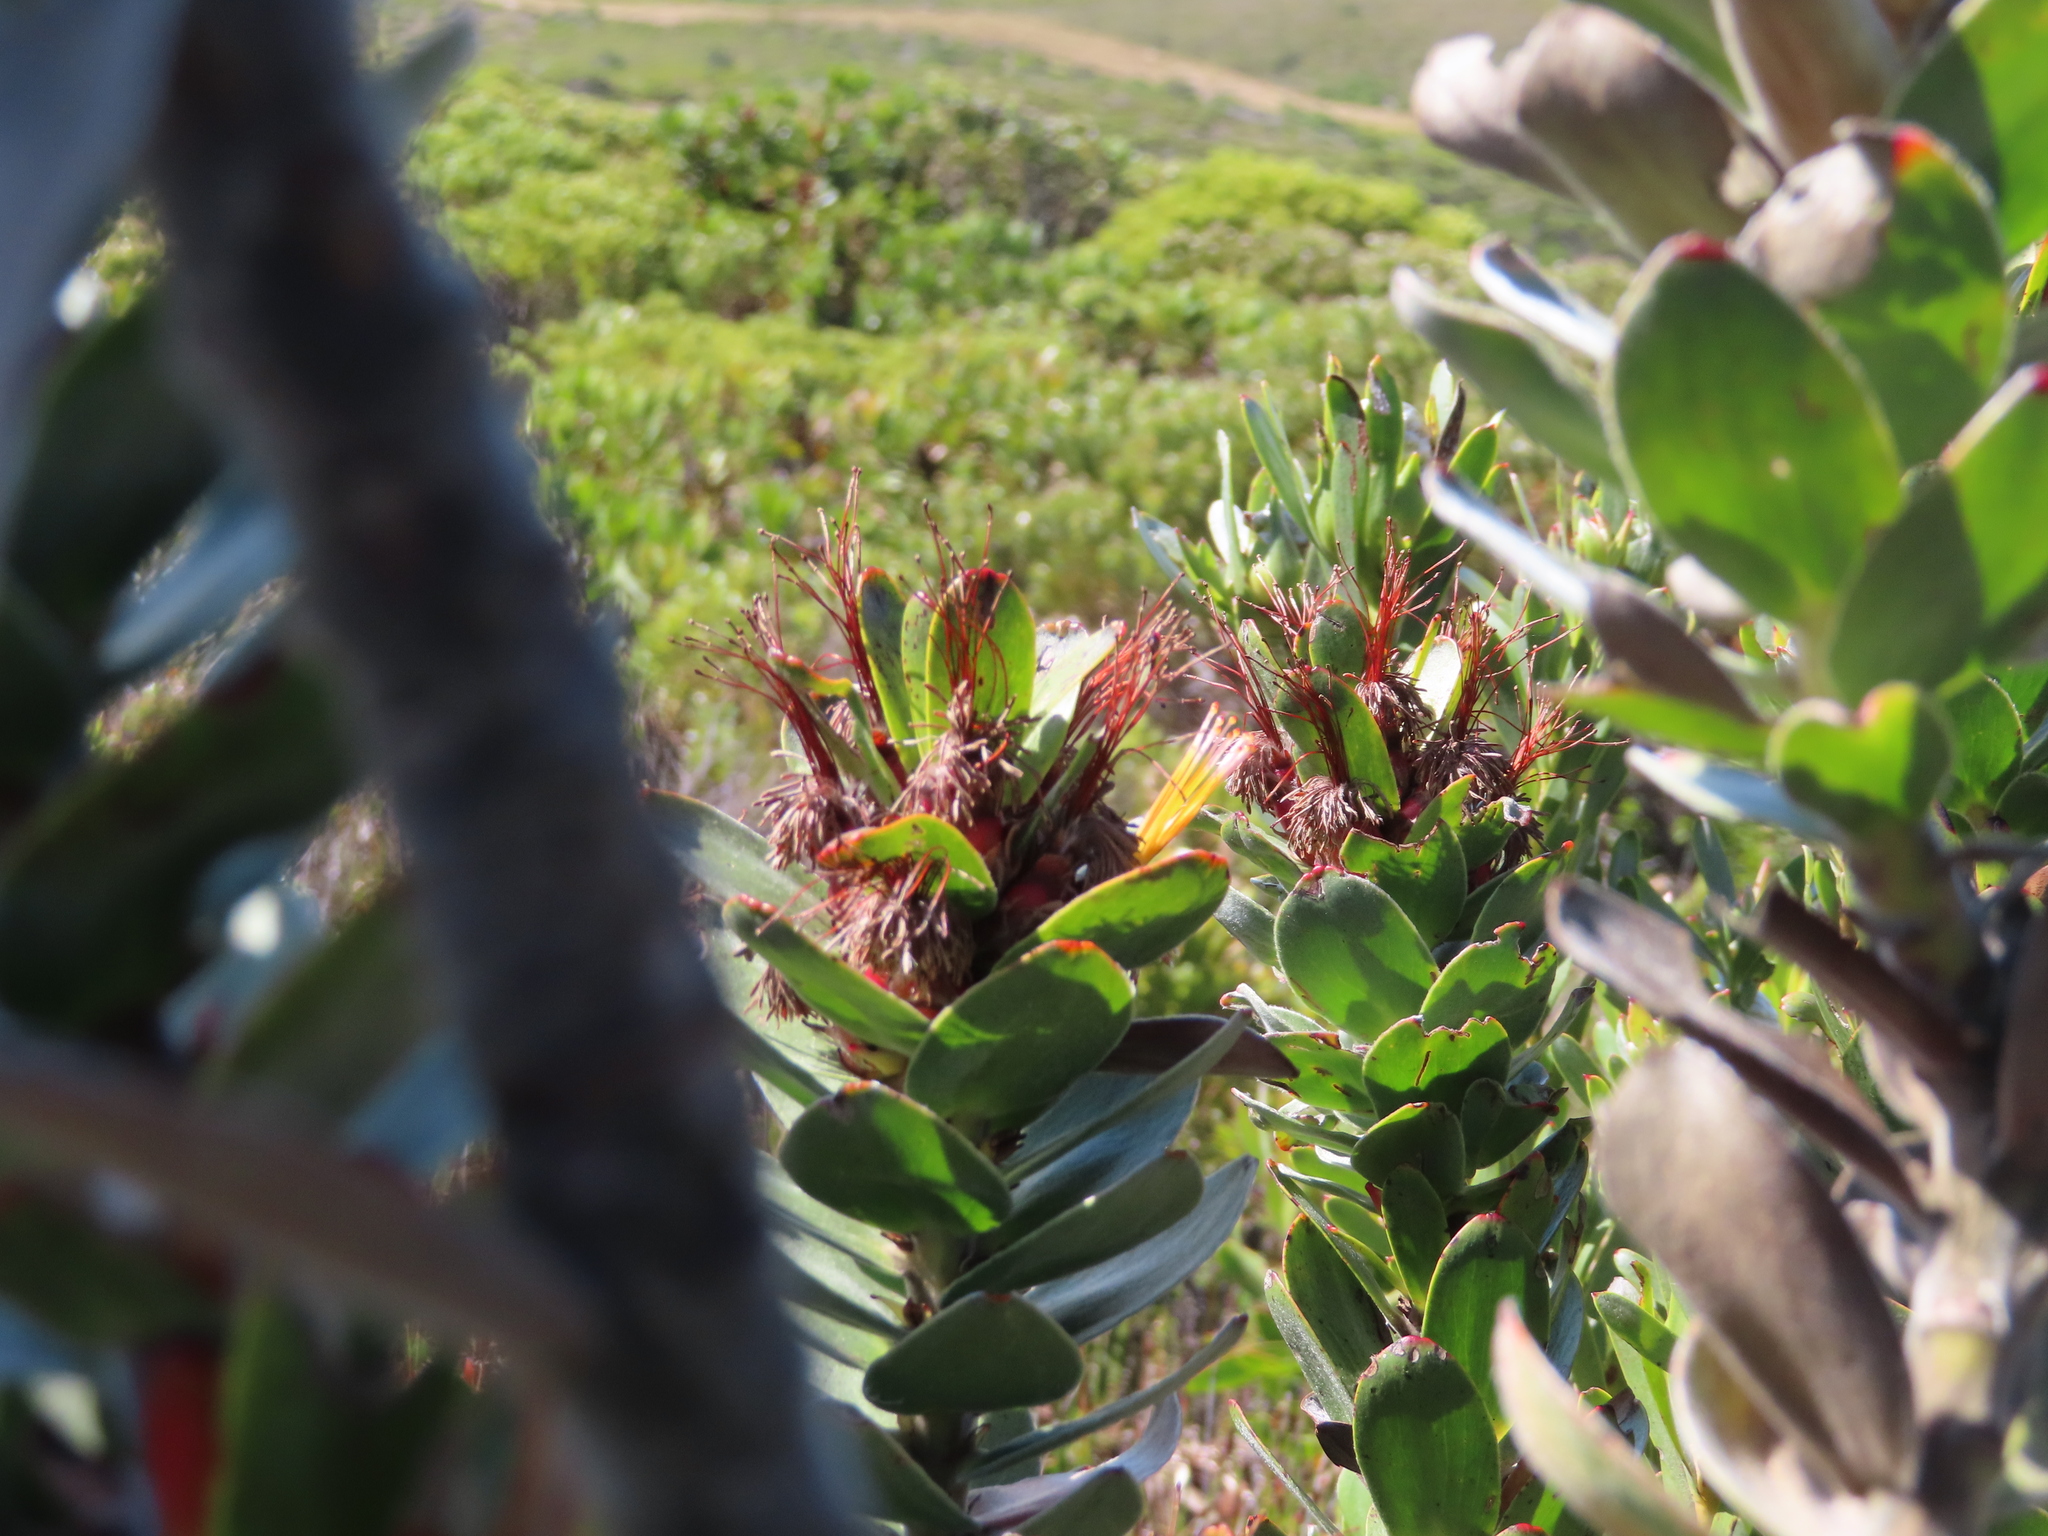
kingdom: Plantae
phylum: Tracheophyta
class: Magnoliopsida
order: Proteales
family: Proteaceae
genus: Mimetes
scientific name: Mimetes saxatilis
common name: Limestone pagoda
